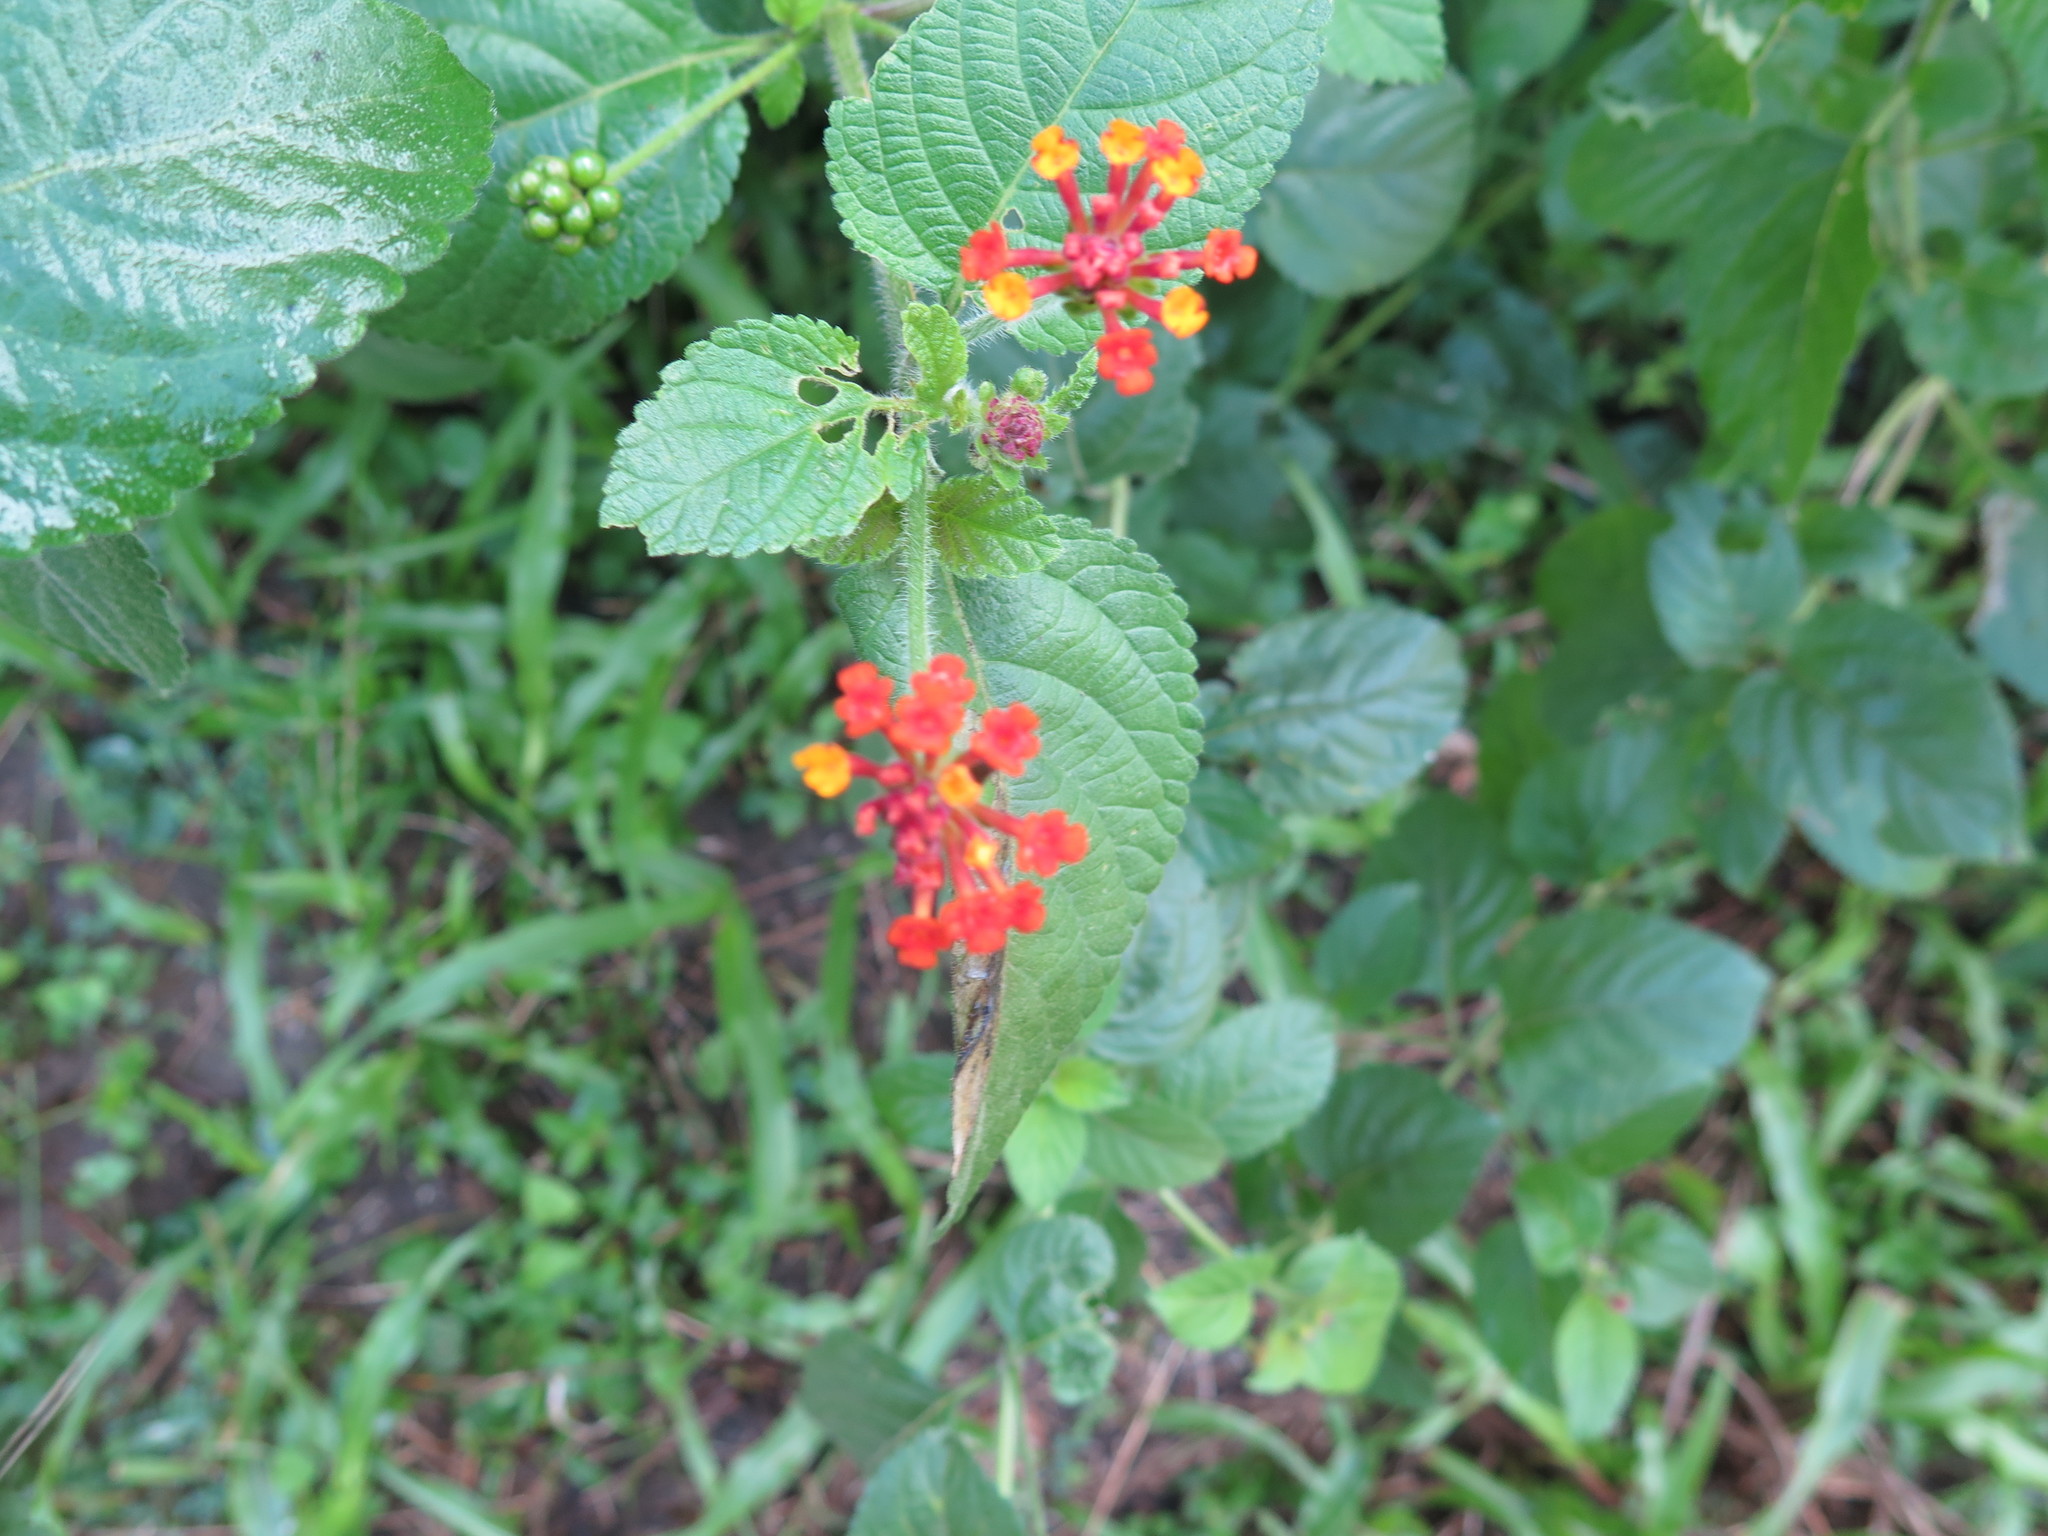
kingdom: Plantae
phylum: Tracheophyta
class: Magnoliopsida
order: Lamiales
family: Verbenaceae
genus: Lantana
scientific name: Lantana camara
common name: Lantana
